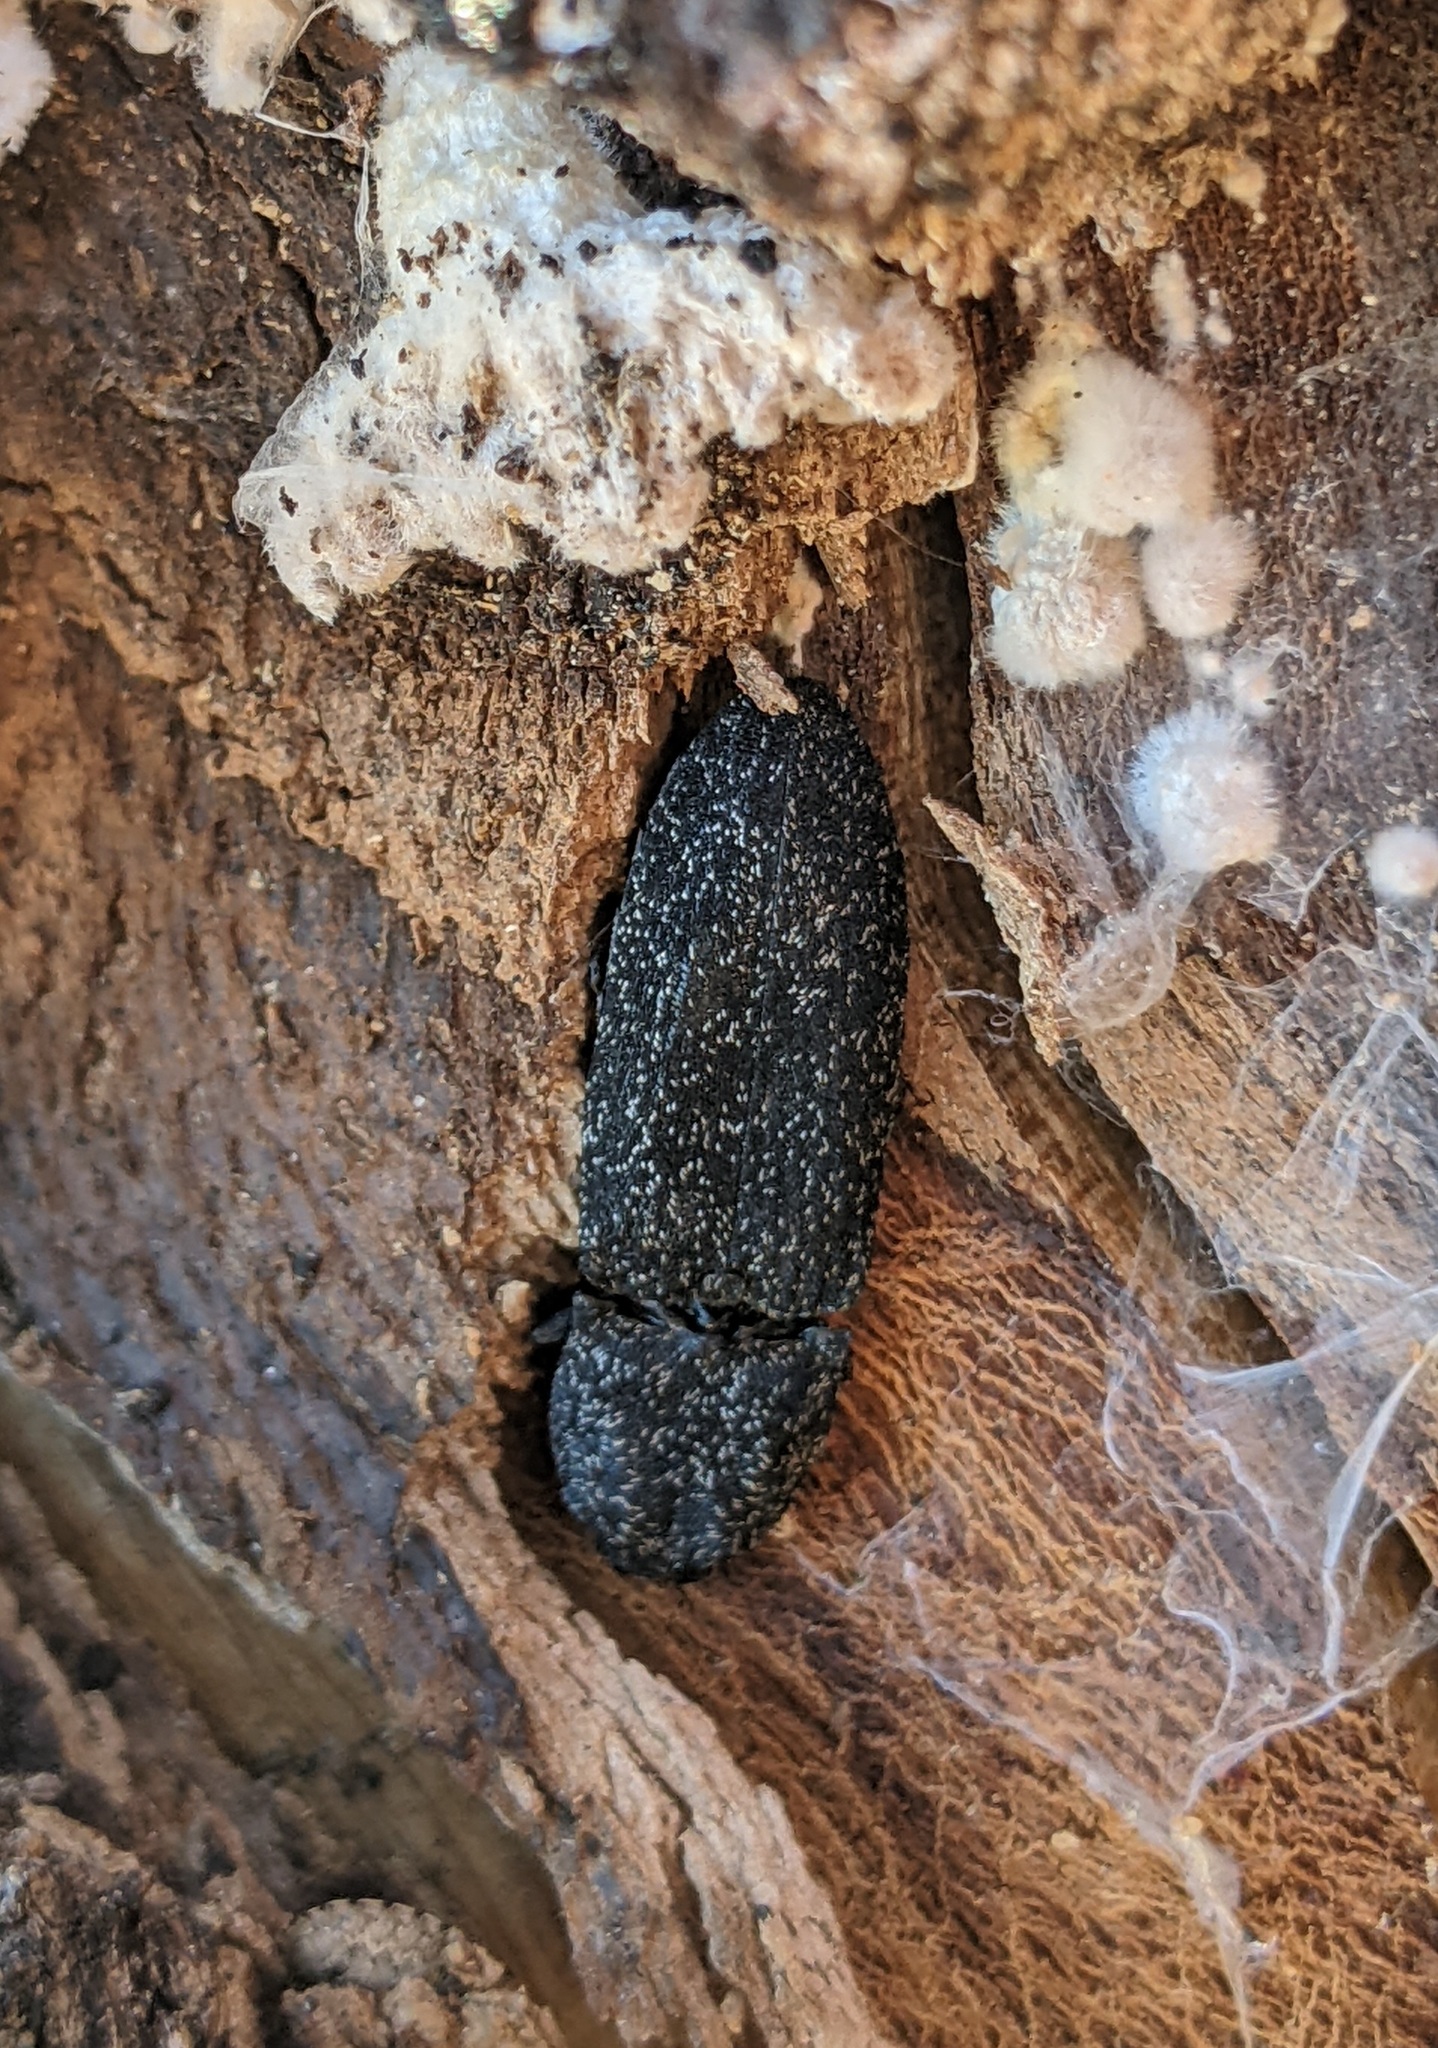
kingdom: Animalia
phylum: Arthropoda
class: Insecta
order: Coleoptera
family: Elateridae
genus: Lacon
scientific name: Lacon punctatus
